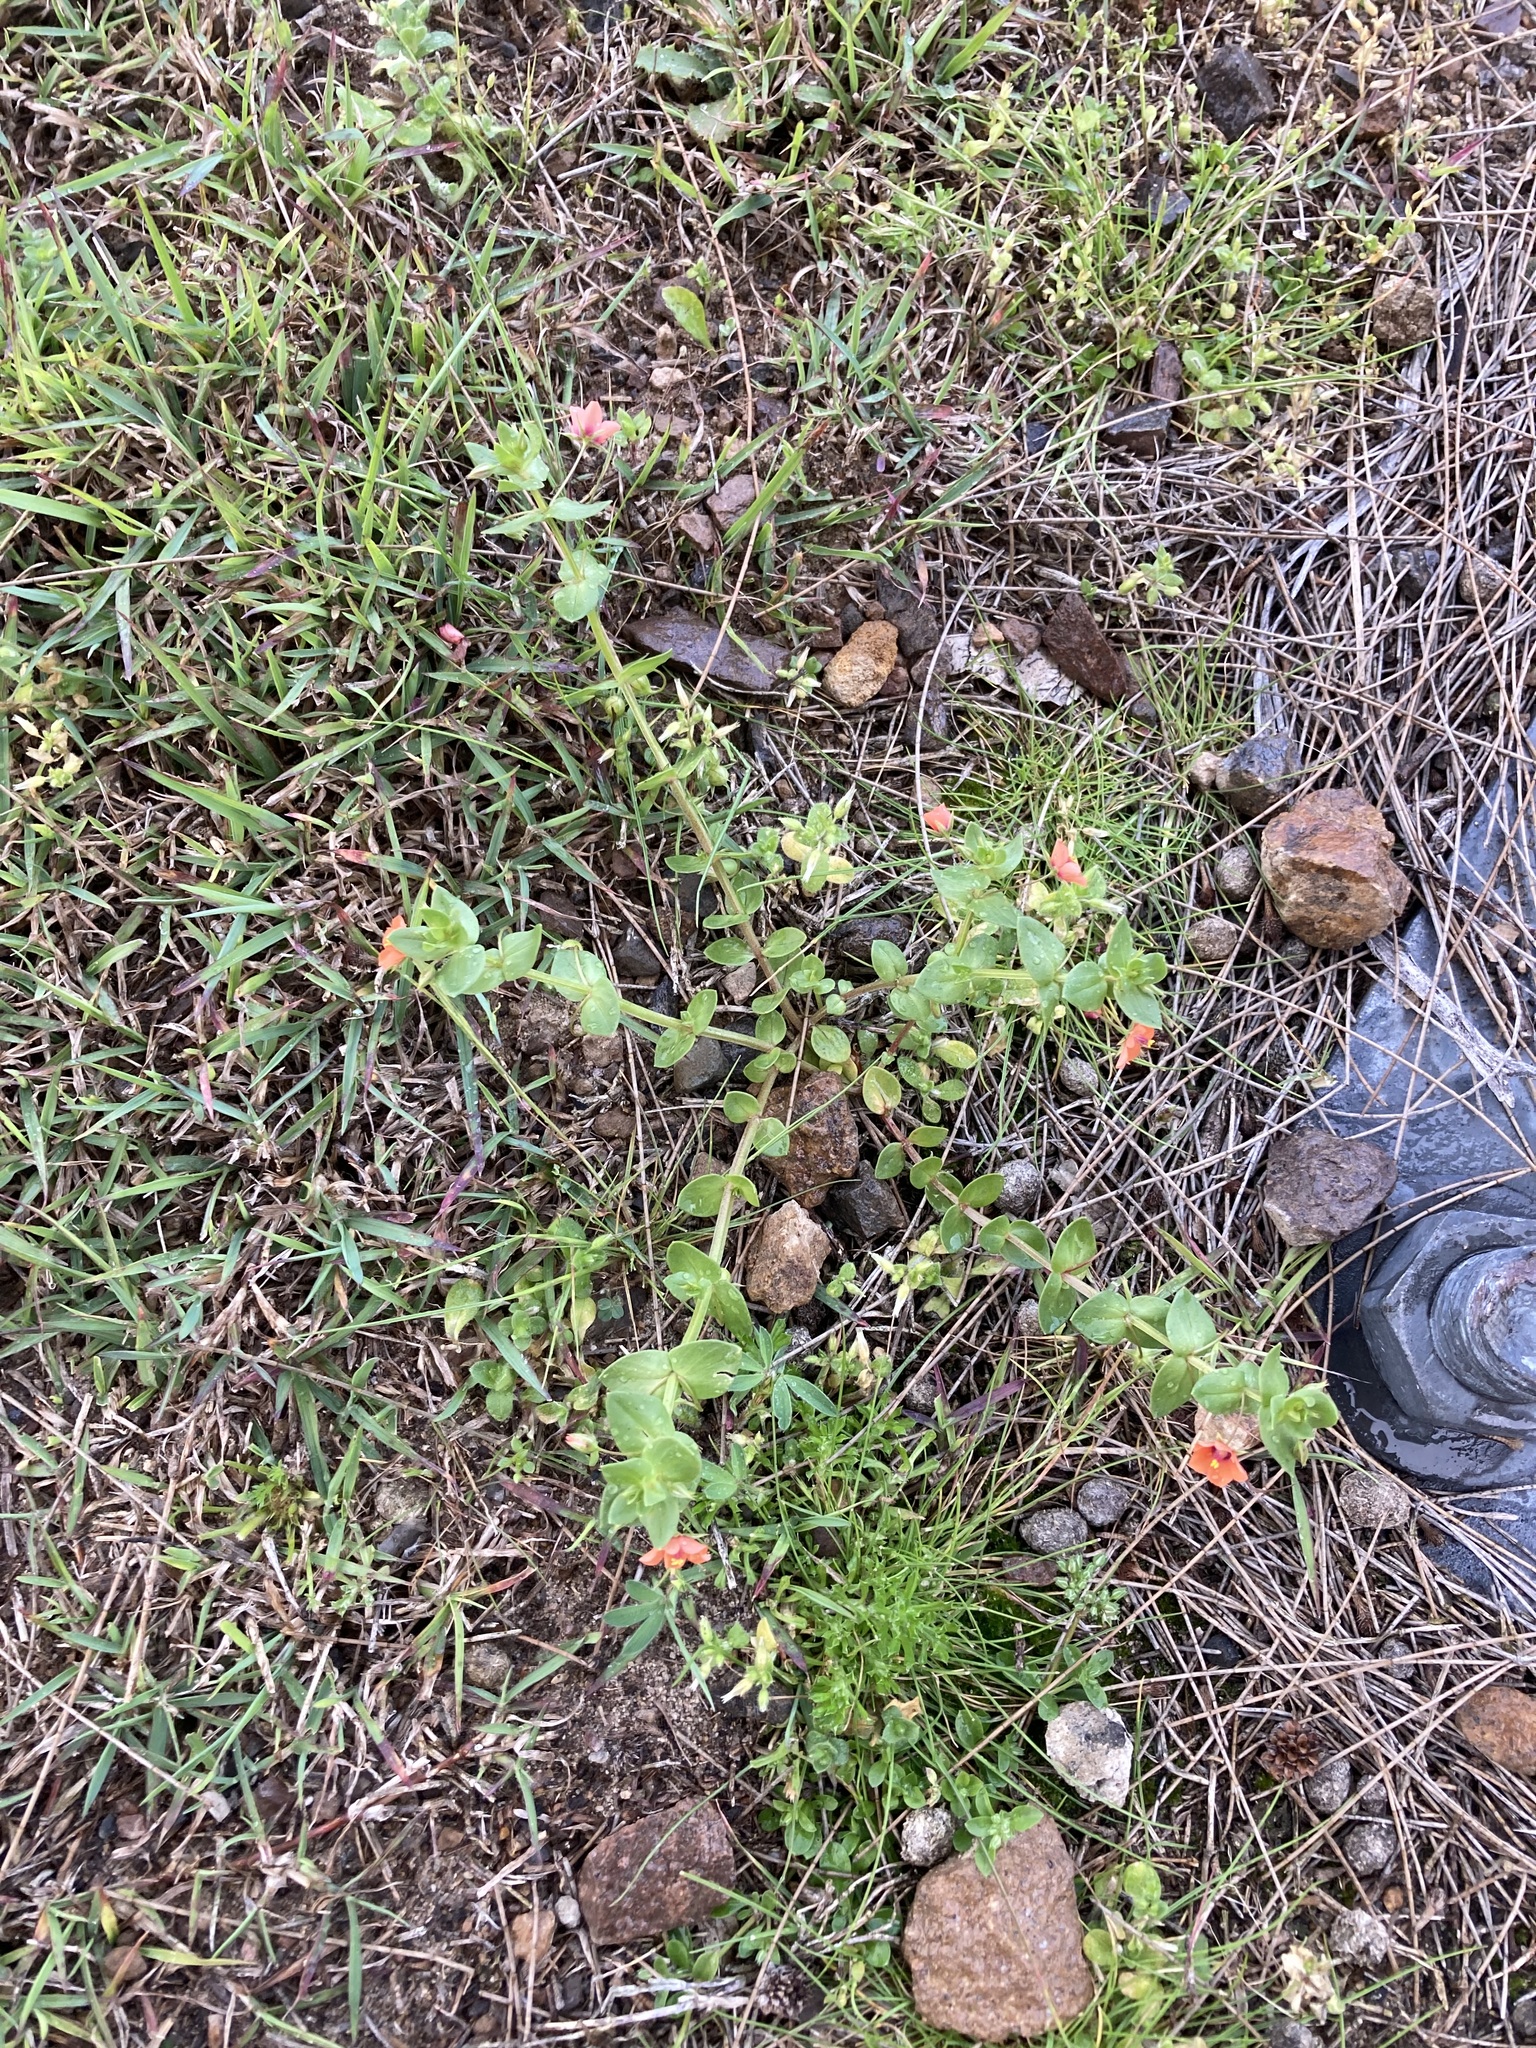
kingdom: Plantae
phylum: Tracheophyta
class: Magnoliopsida
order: Ericales
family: Primulaceae
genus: Lysimachia
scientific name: Lysimachia arvensis
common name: Scarlet pimpernel
